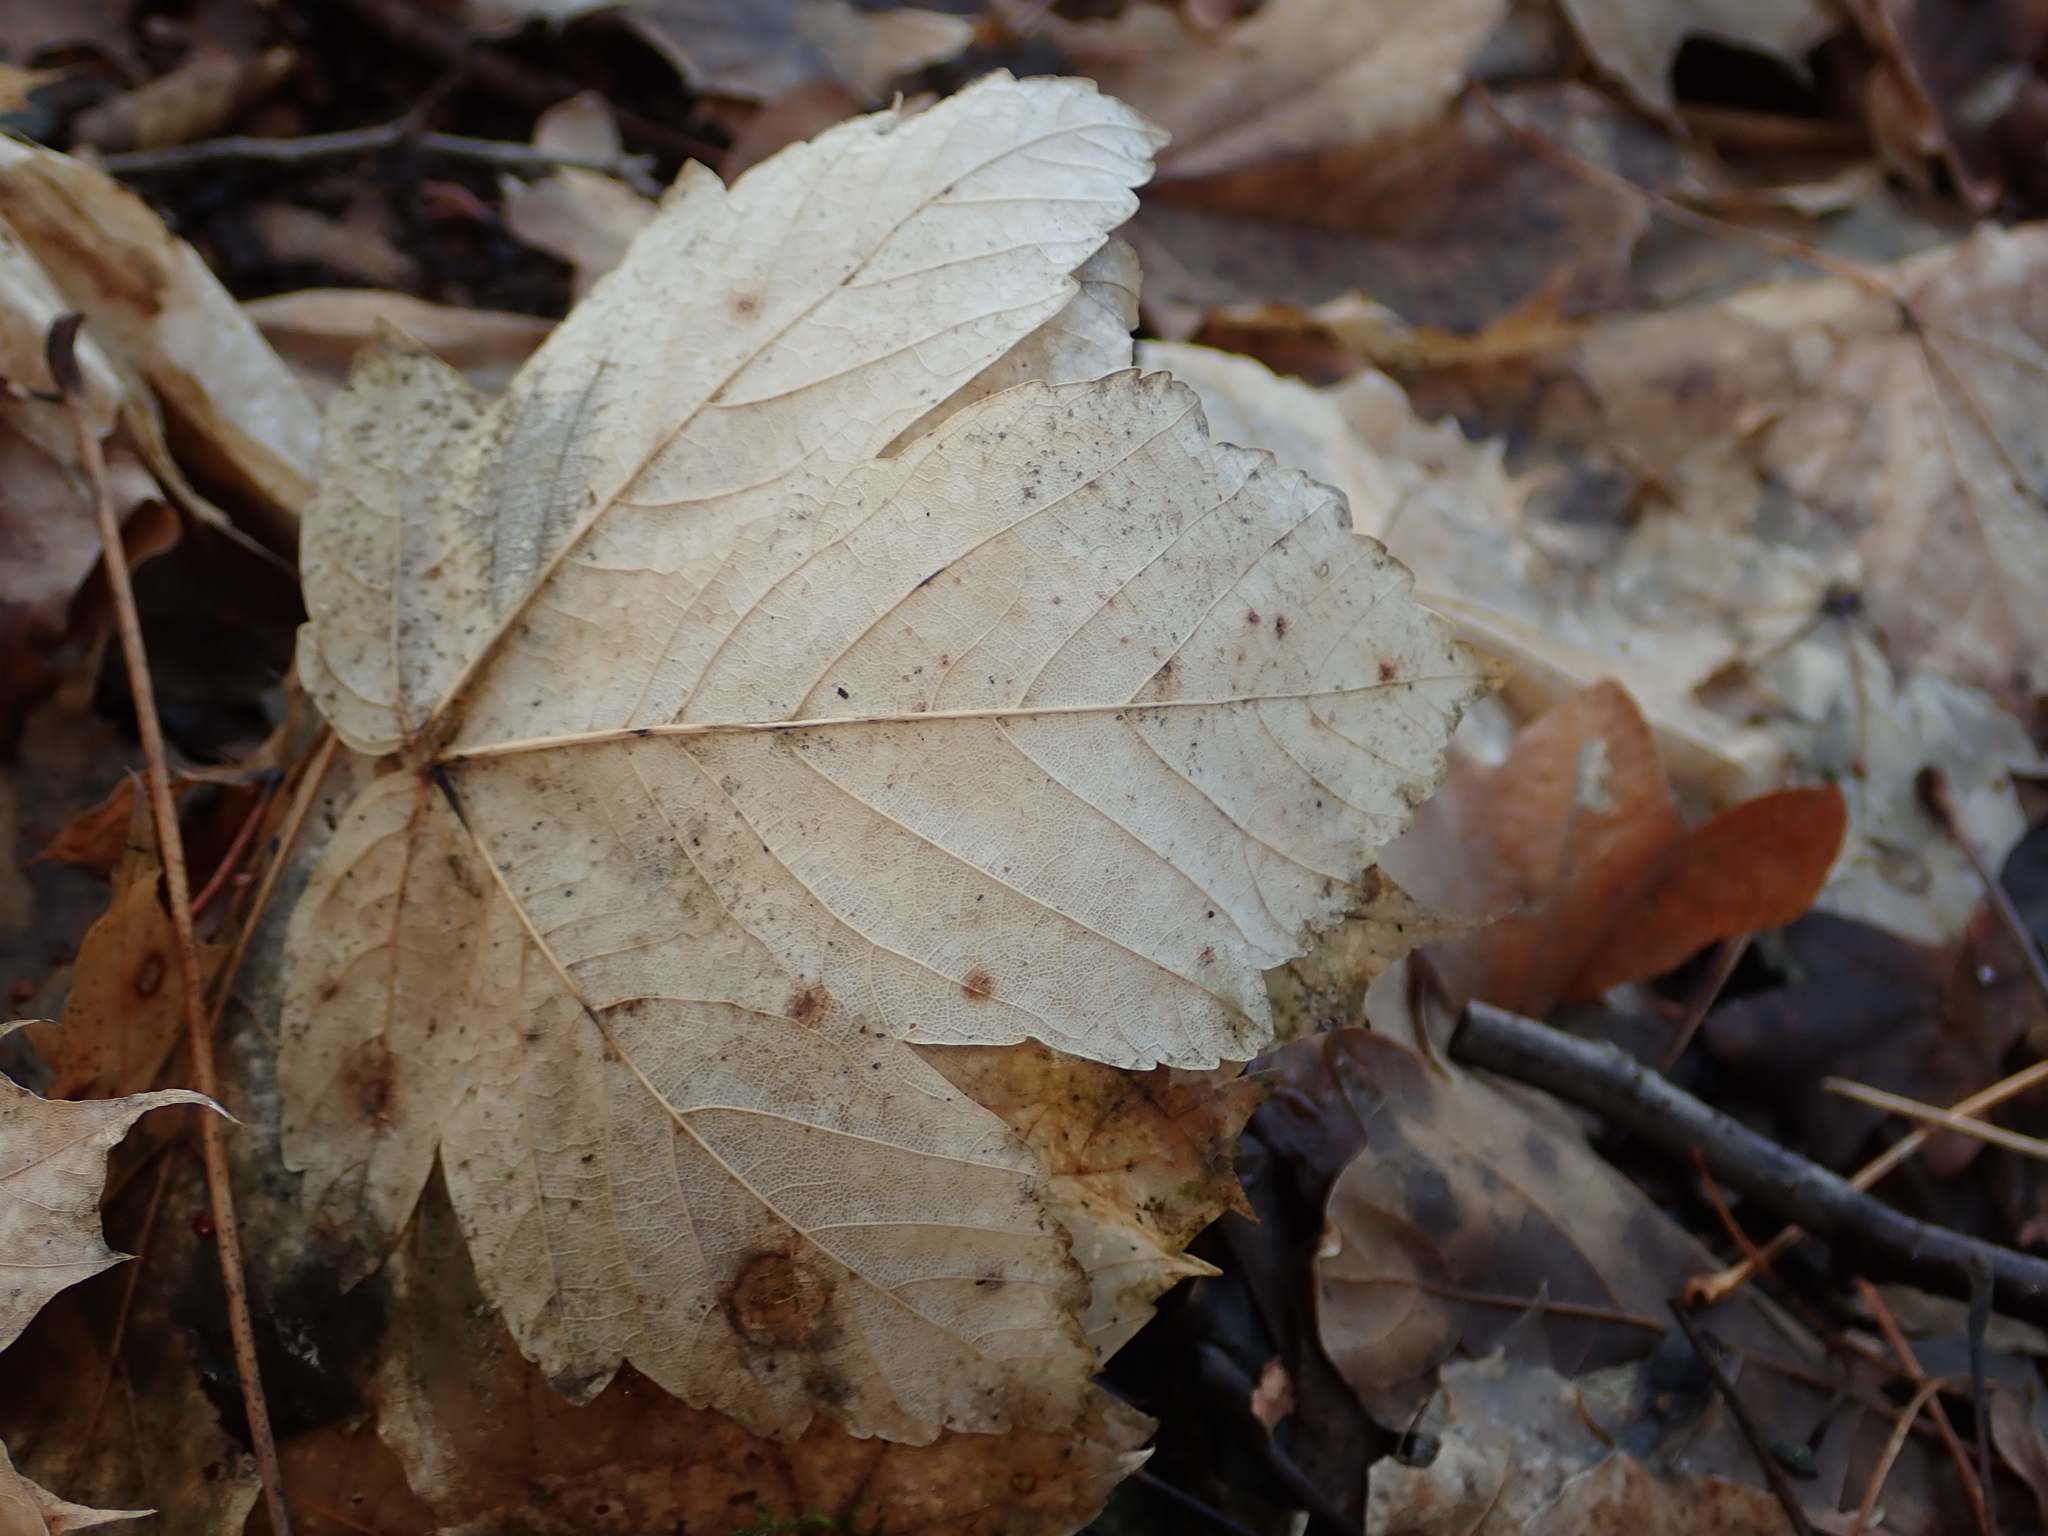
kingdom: Plantae
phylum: Tracheophyta
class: Magnoliopsida
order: Sapindales
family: Sapindaceae
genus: Acer
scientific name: Acer pseudoplatanus
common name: Sycamore
